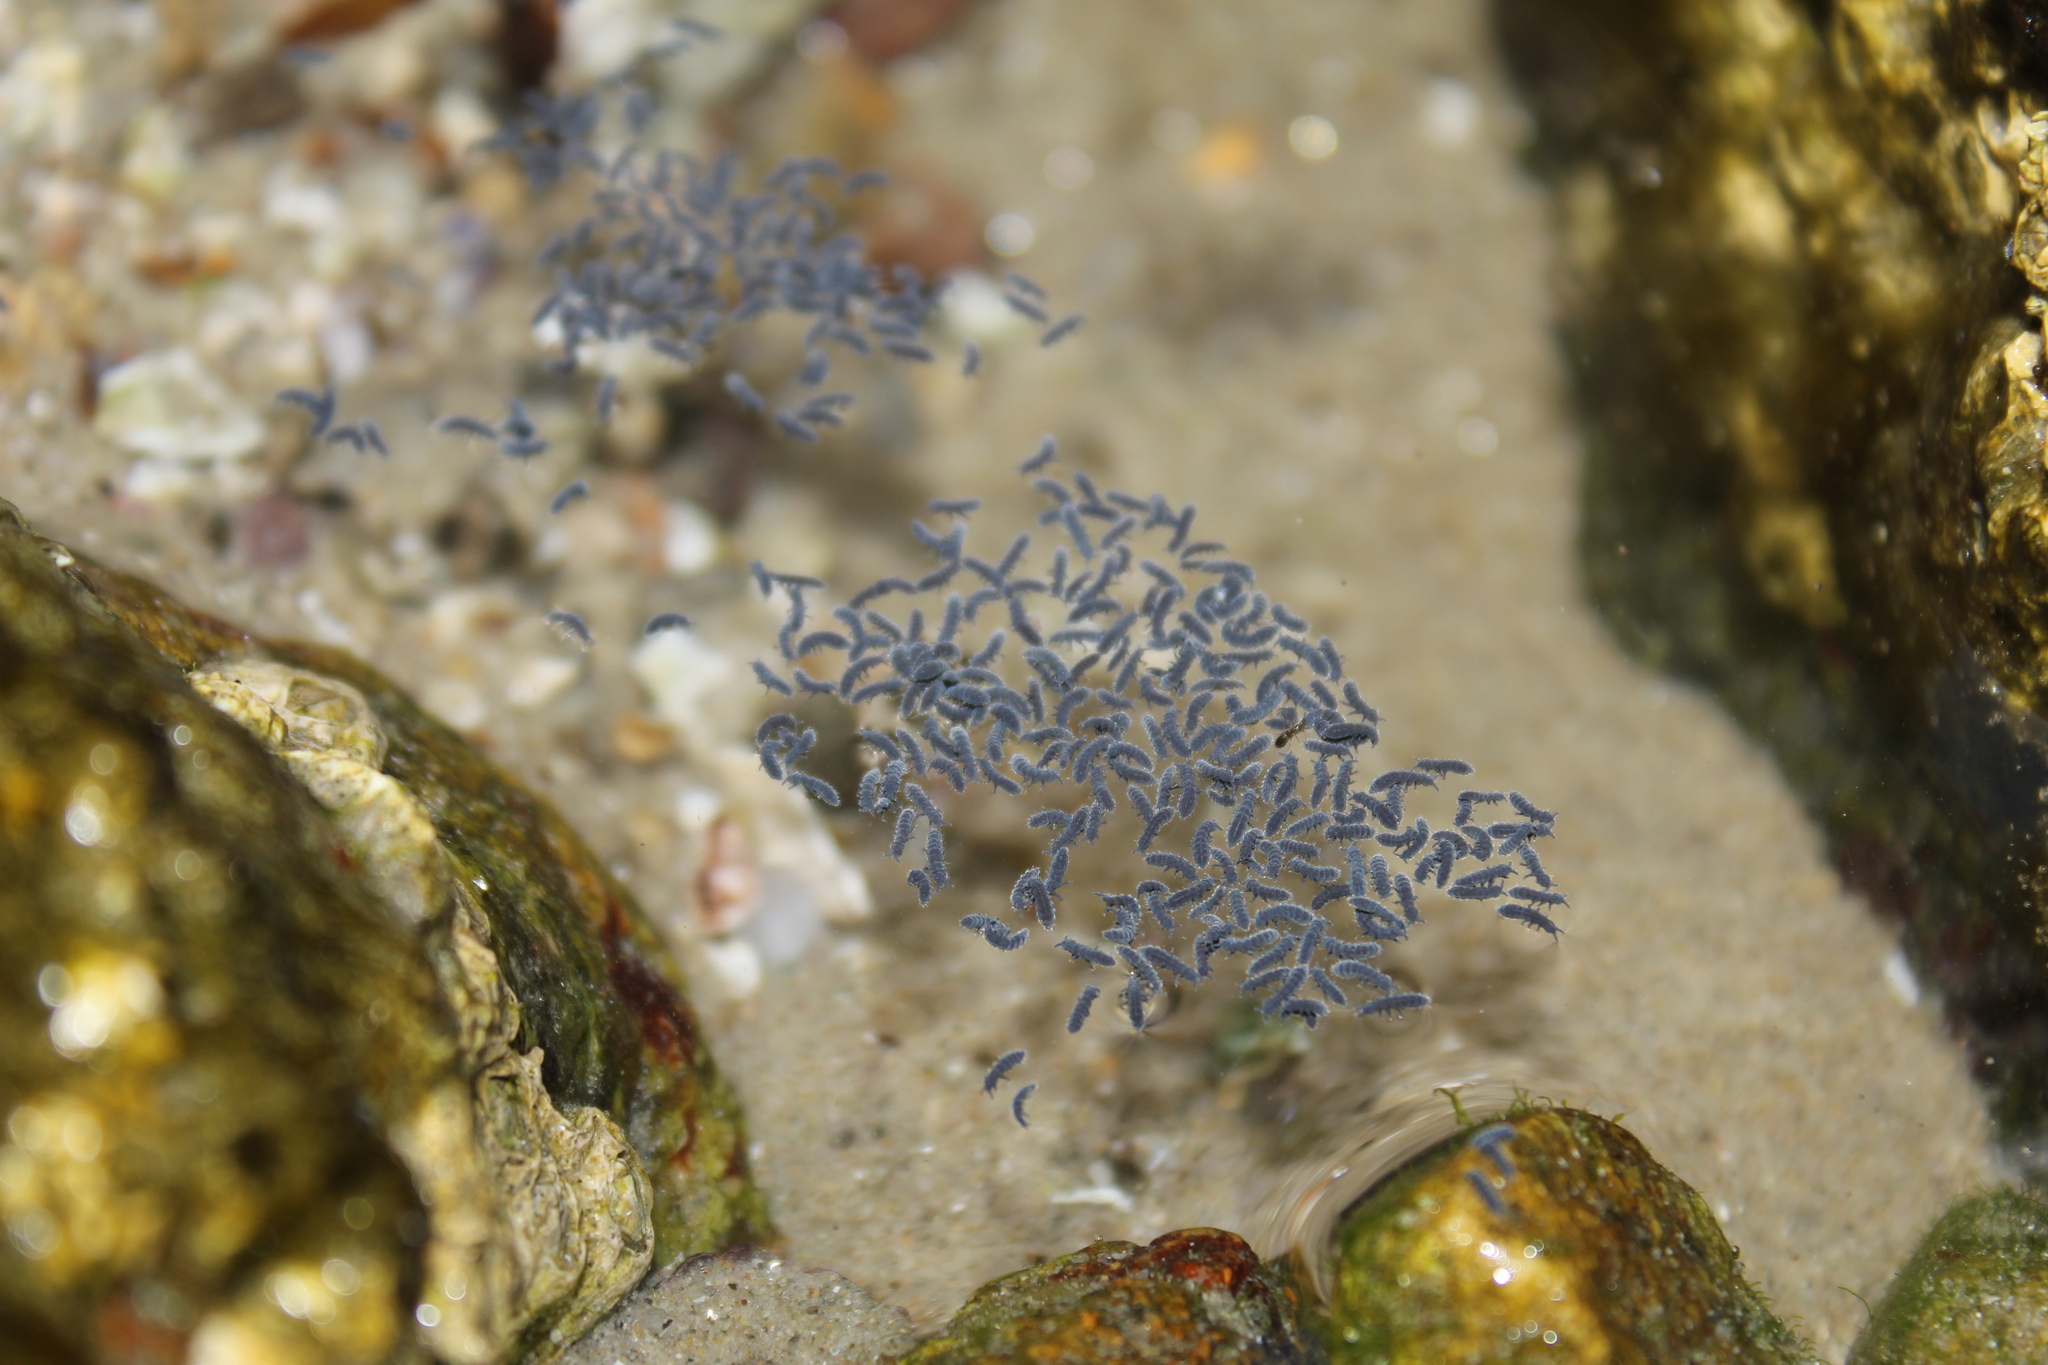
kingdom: Animalia
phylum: Arthropoda
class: Collembola
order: Poduromorpha
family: Neanuridae
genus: Anurida
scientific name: Anurida maritima
